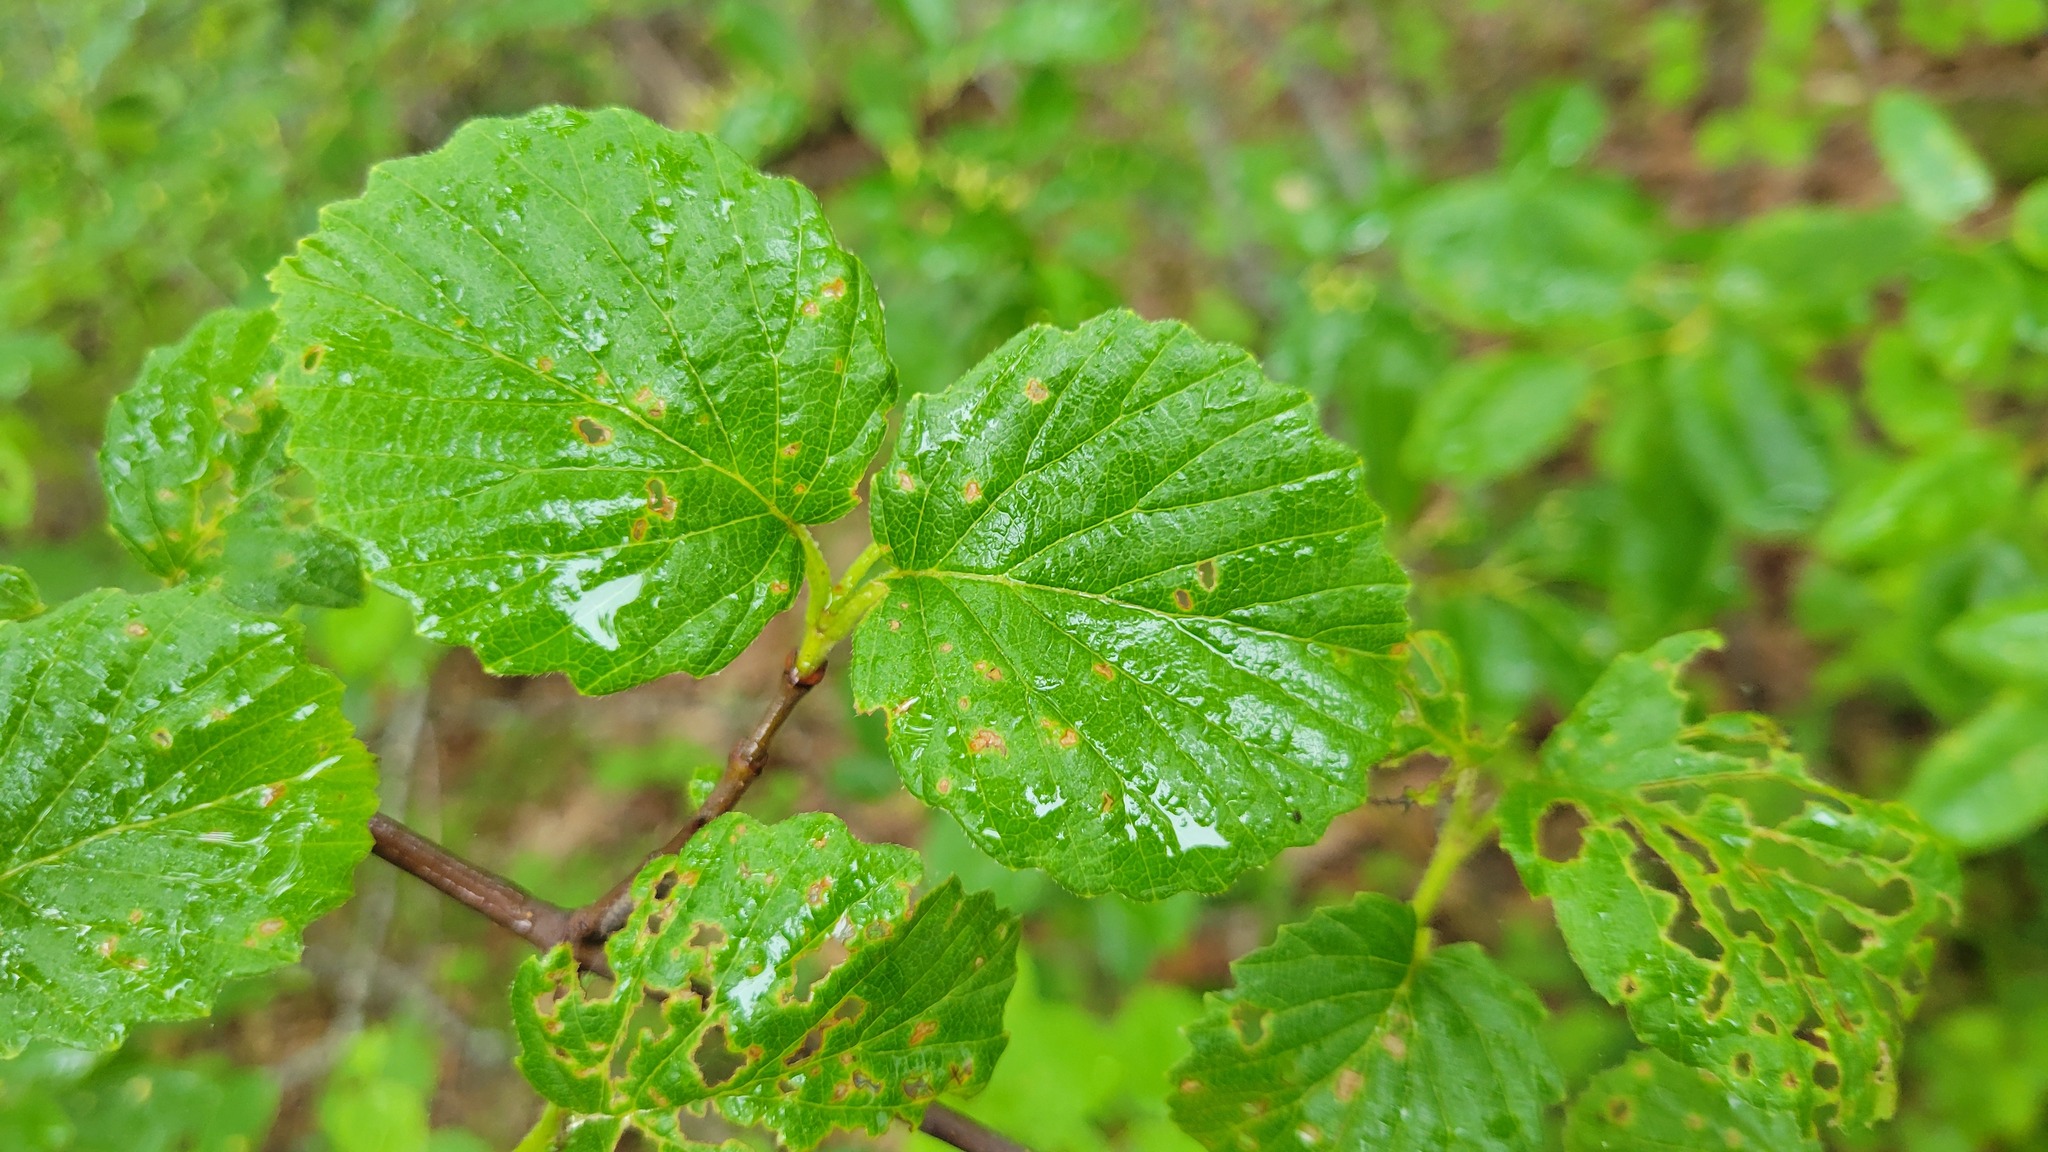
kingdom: Plantae
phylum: Tracheophyta
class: Magnoliopsida
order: Dipsacales
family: Viburnaceae
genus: Viburnum
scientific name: Viburnum dentatum
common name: Arrow-wood
